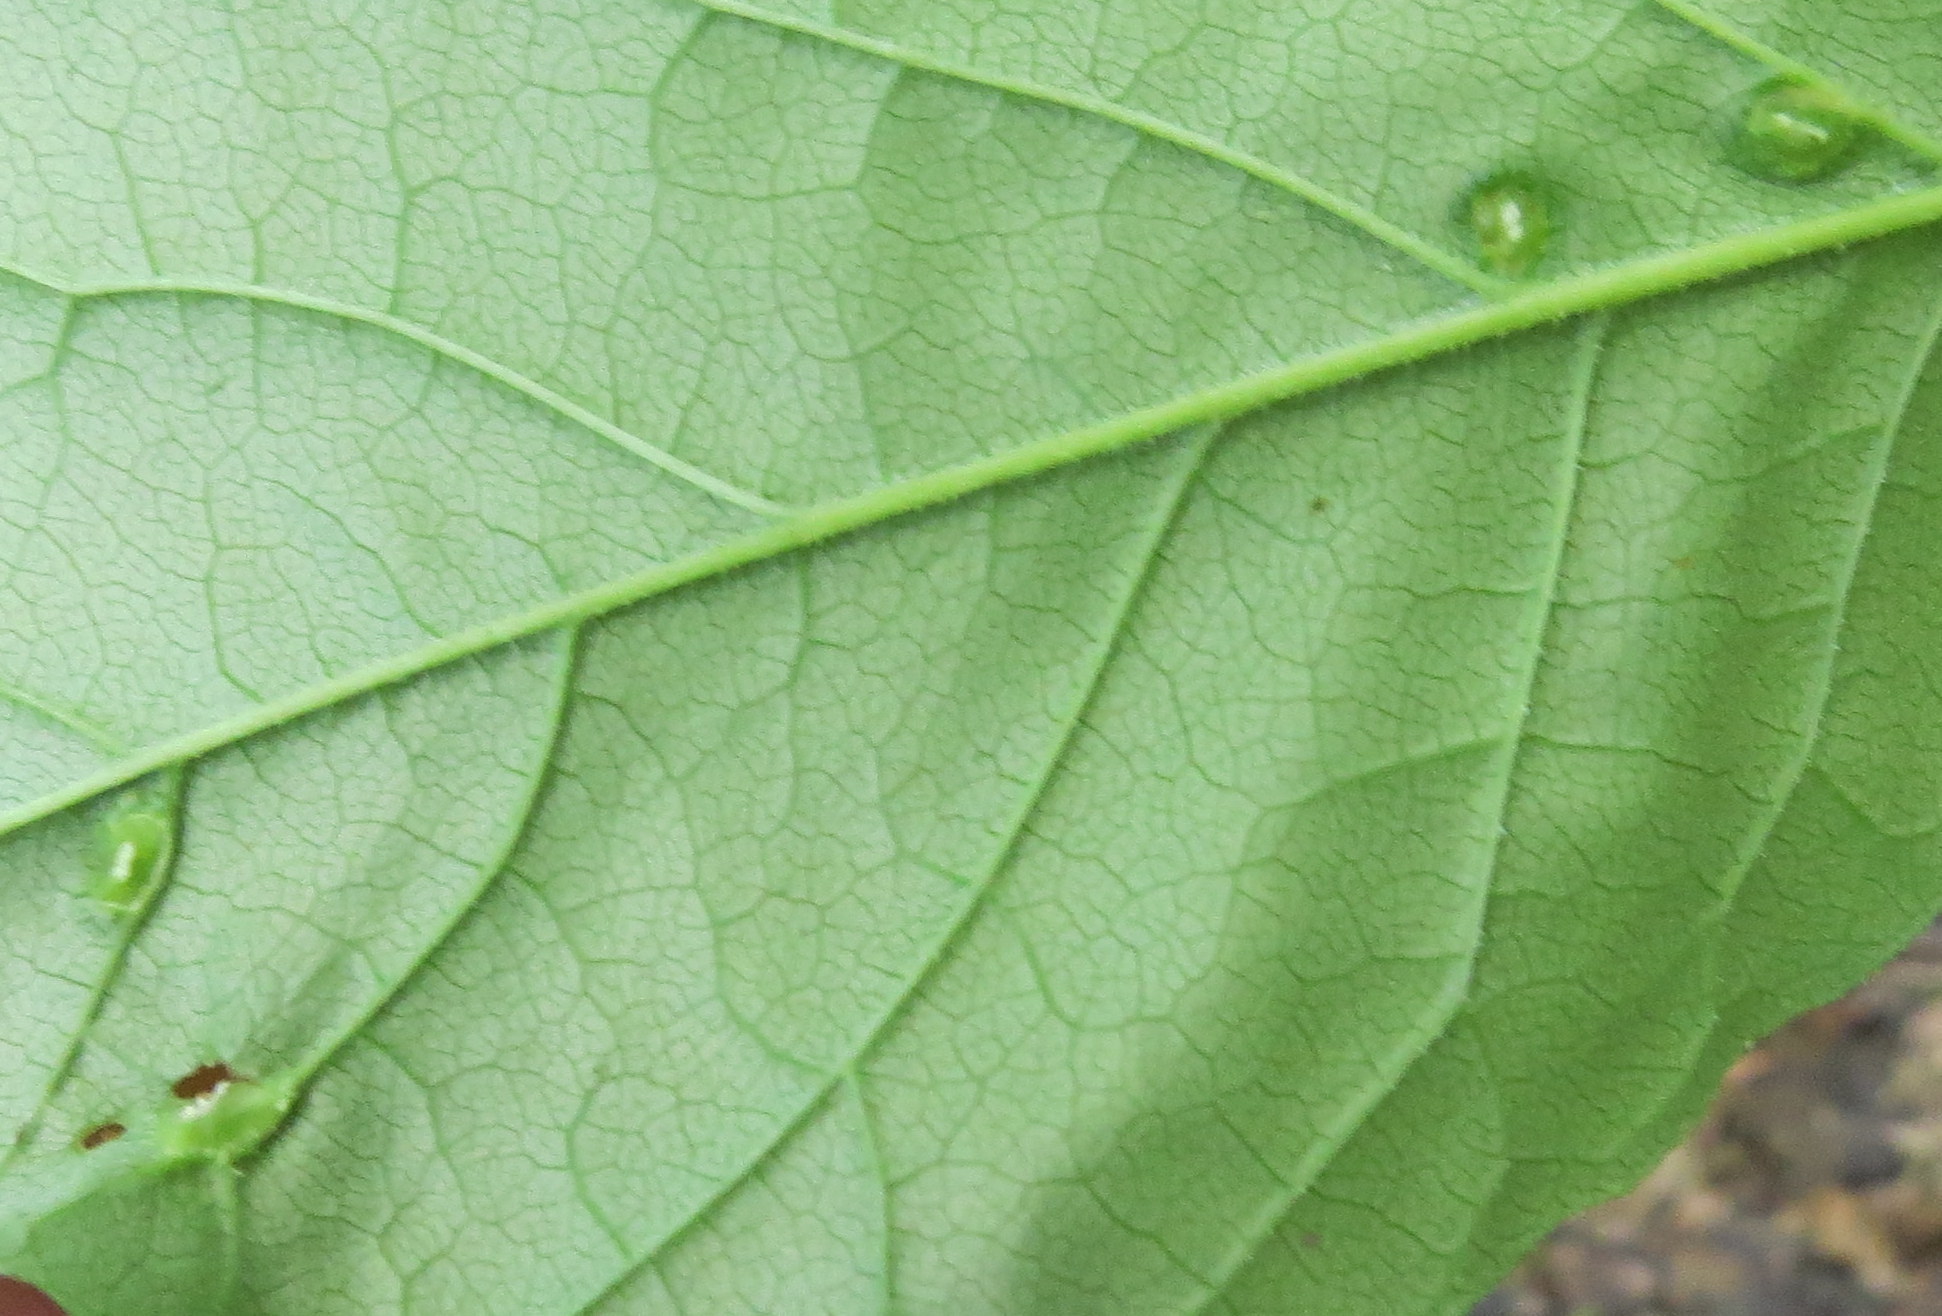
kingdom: Animalia
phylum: Arthropoda
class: Arachnida
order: Trombidiformes
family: Eriophyidae
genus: Aceria
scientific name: Aceria fraxinicola
